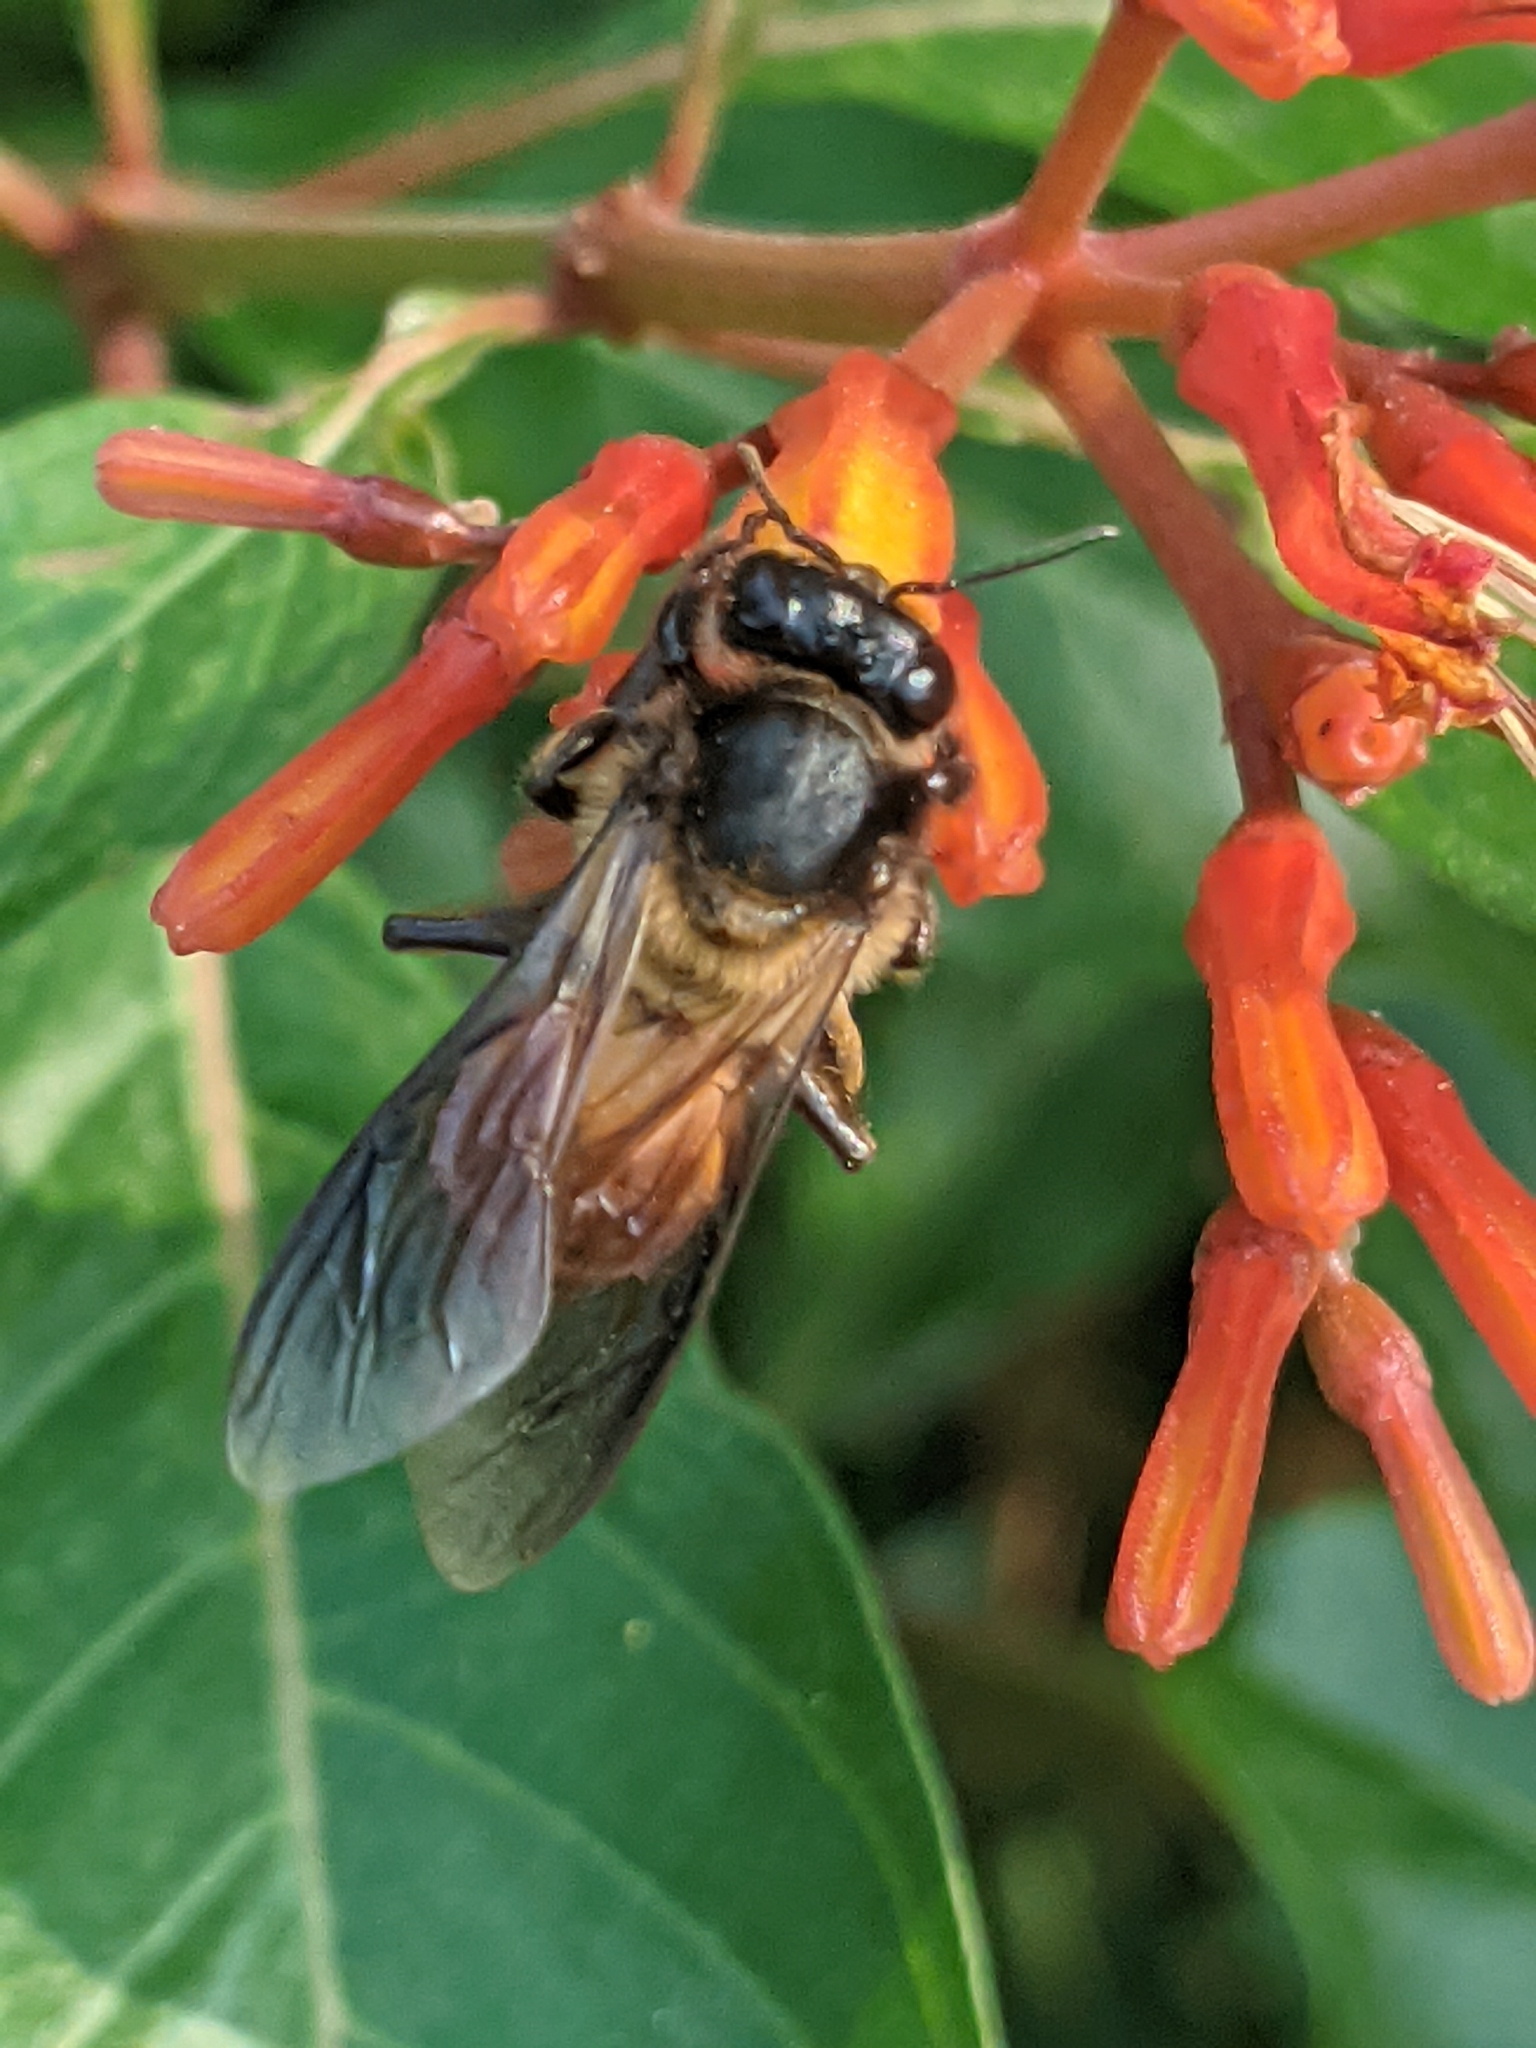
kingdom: Animalia
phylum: Arthropoda
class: Insecta
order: Hymenoptera
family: Apidae
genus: Apis
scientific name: Apis dorsata
